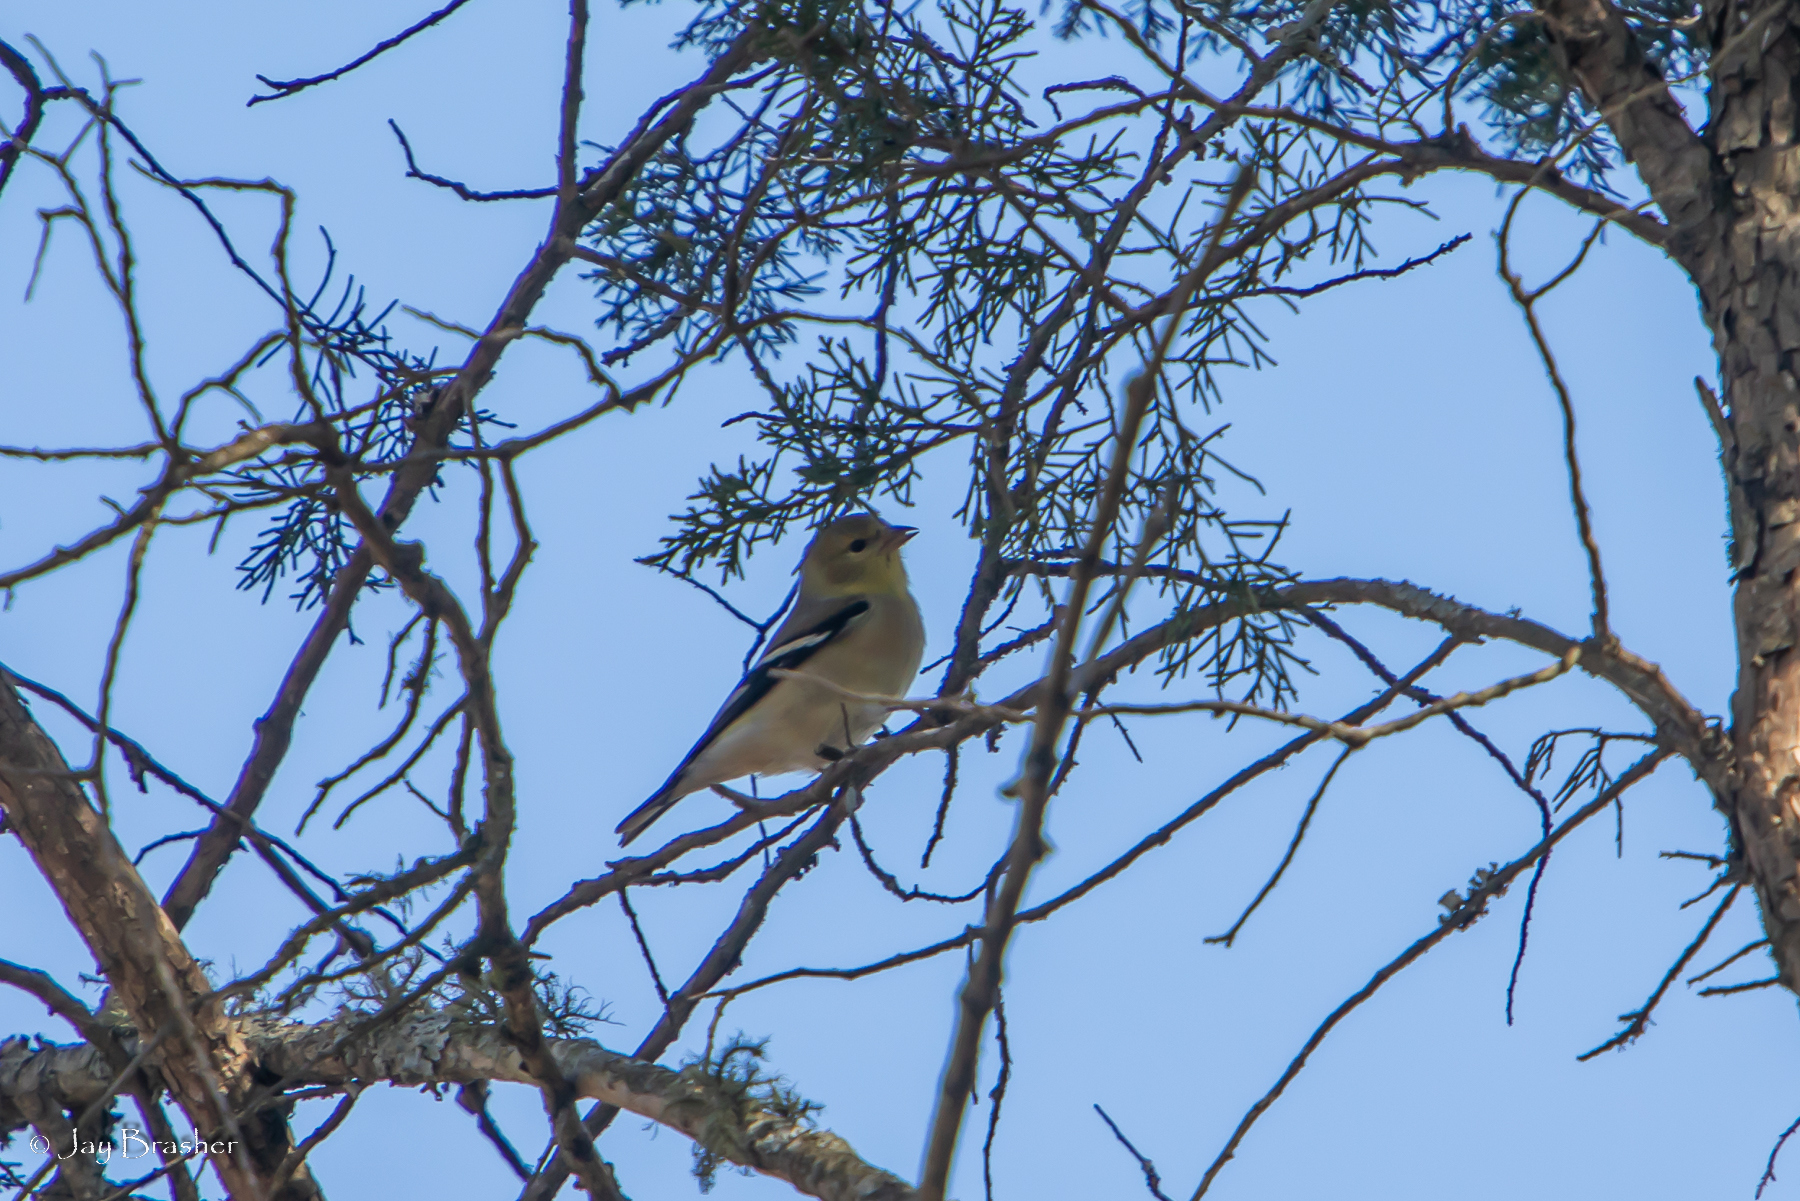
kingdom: Animalia
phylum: Chordata
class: Aves
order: Passeriformes
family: Fringillidae
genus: Spinus
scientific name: Spinus tristis
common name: American goldfinch
